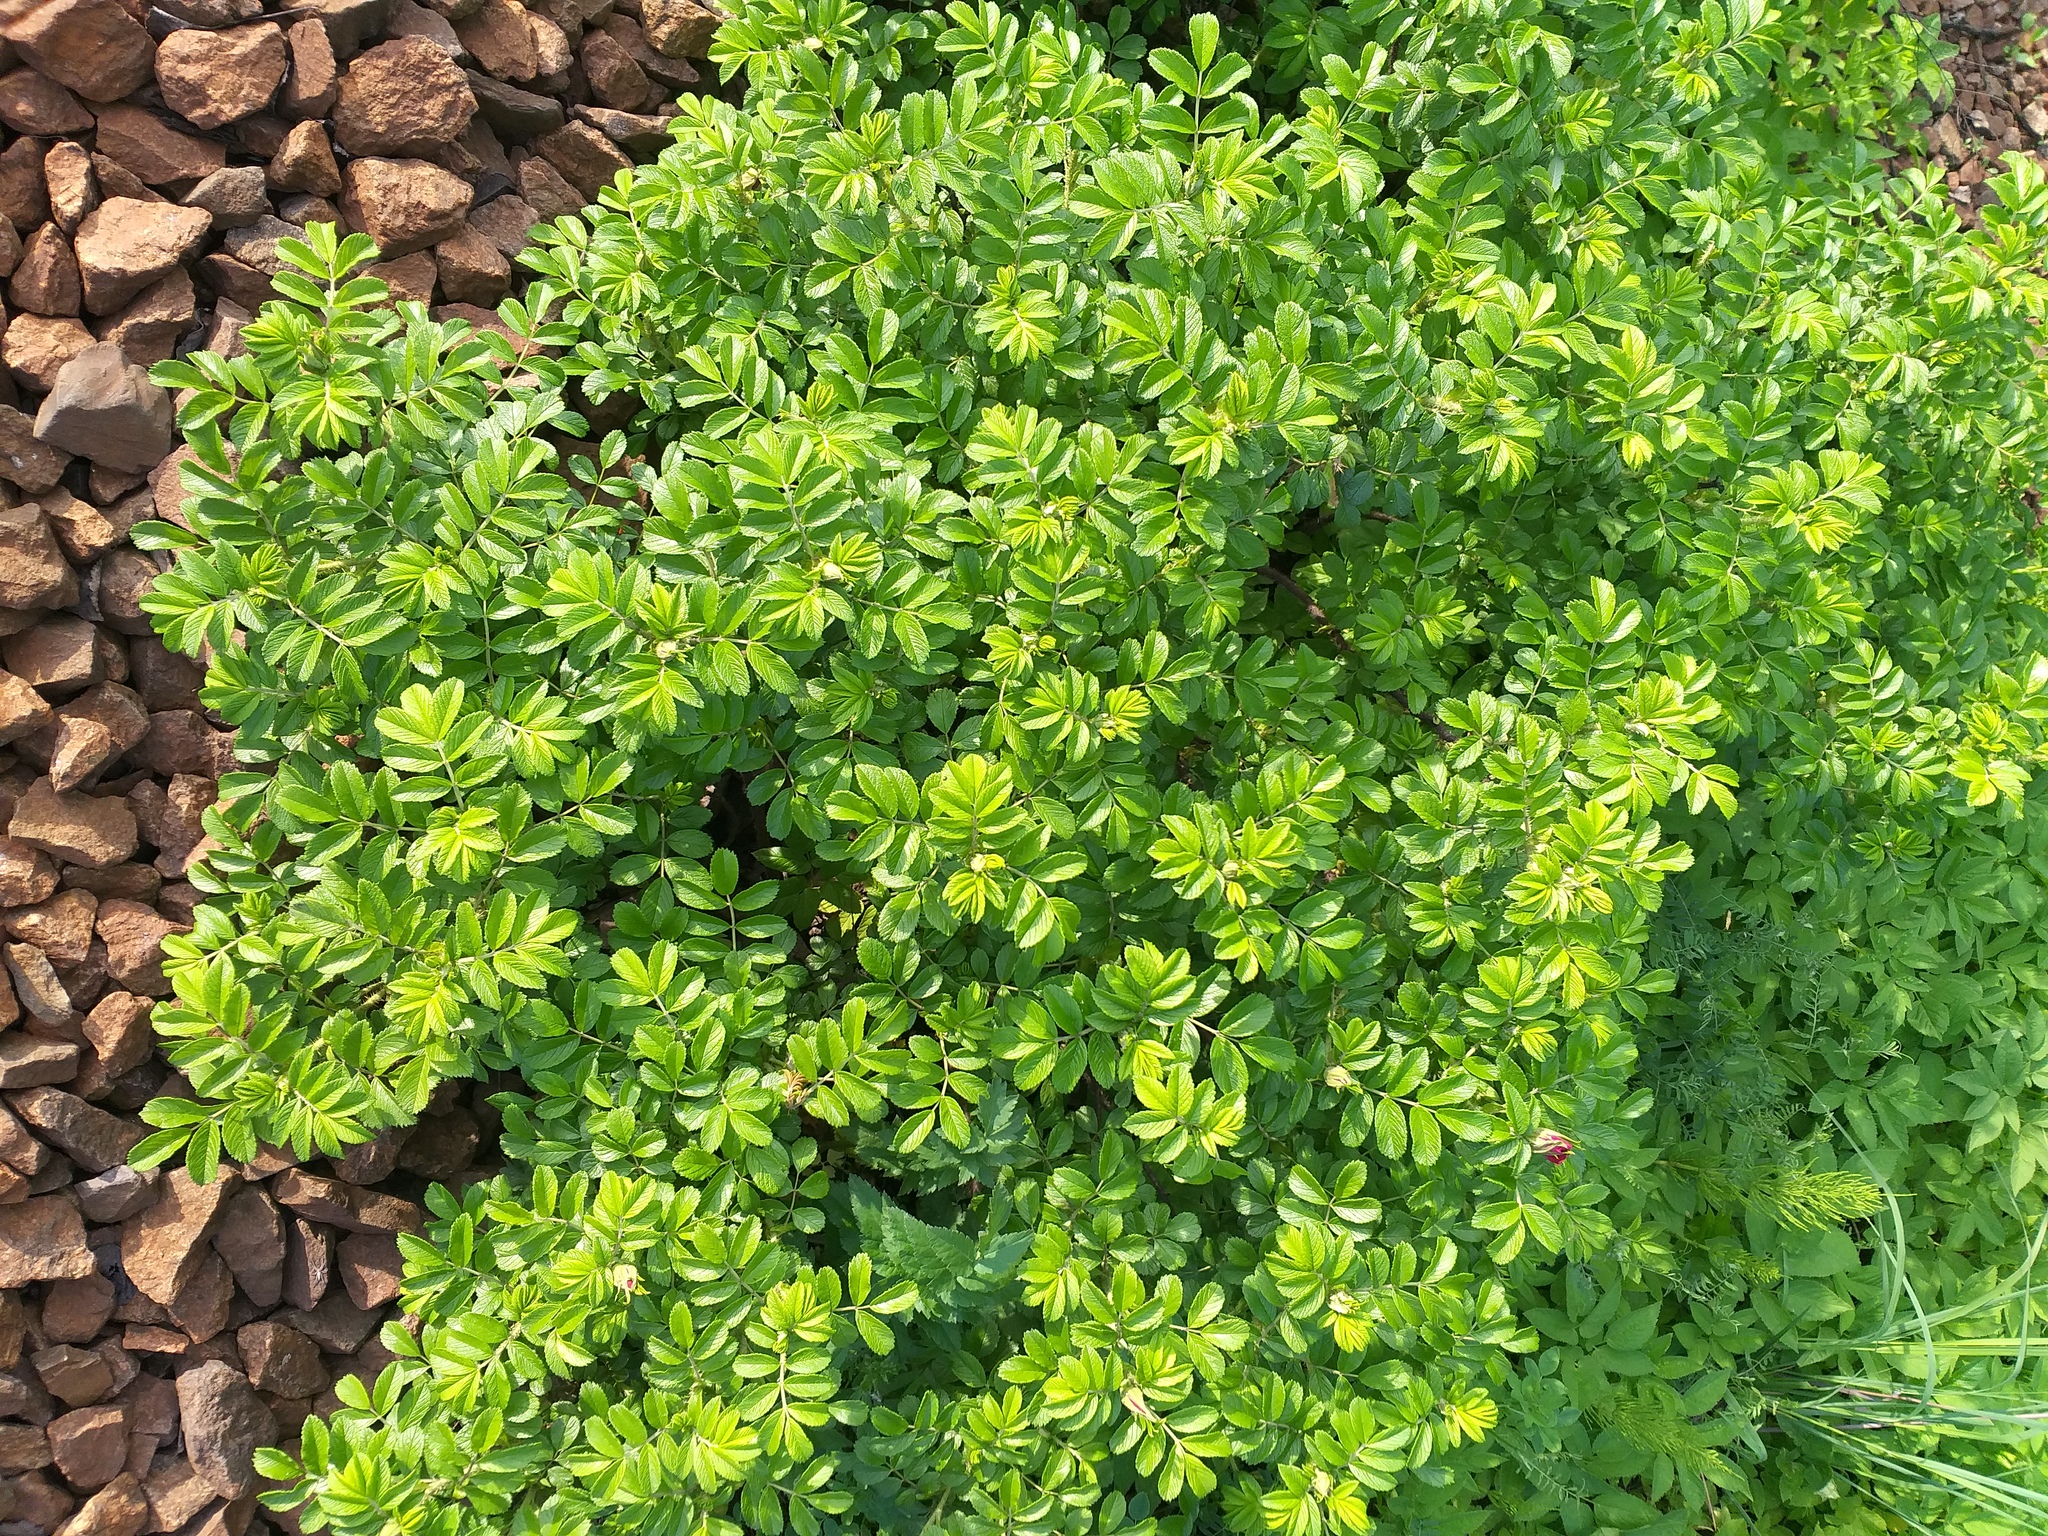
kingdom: Plantae
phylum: Tracheophyta
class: Magnoliopsida
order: Rosales
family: Rosaceae
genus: Rosa
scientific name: Rosa rugosa
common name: Japanese rose
